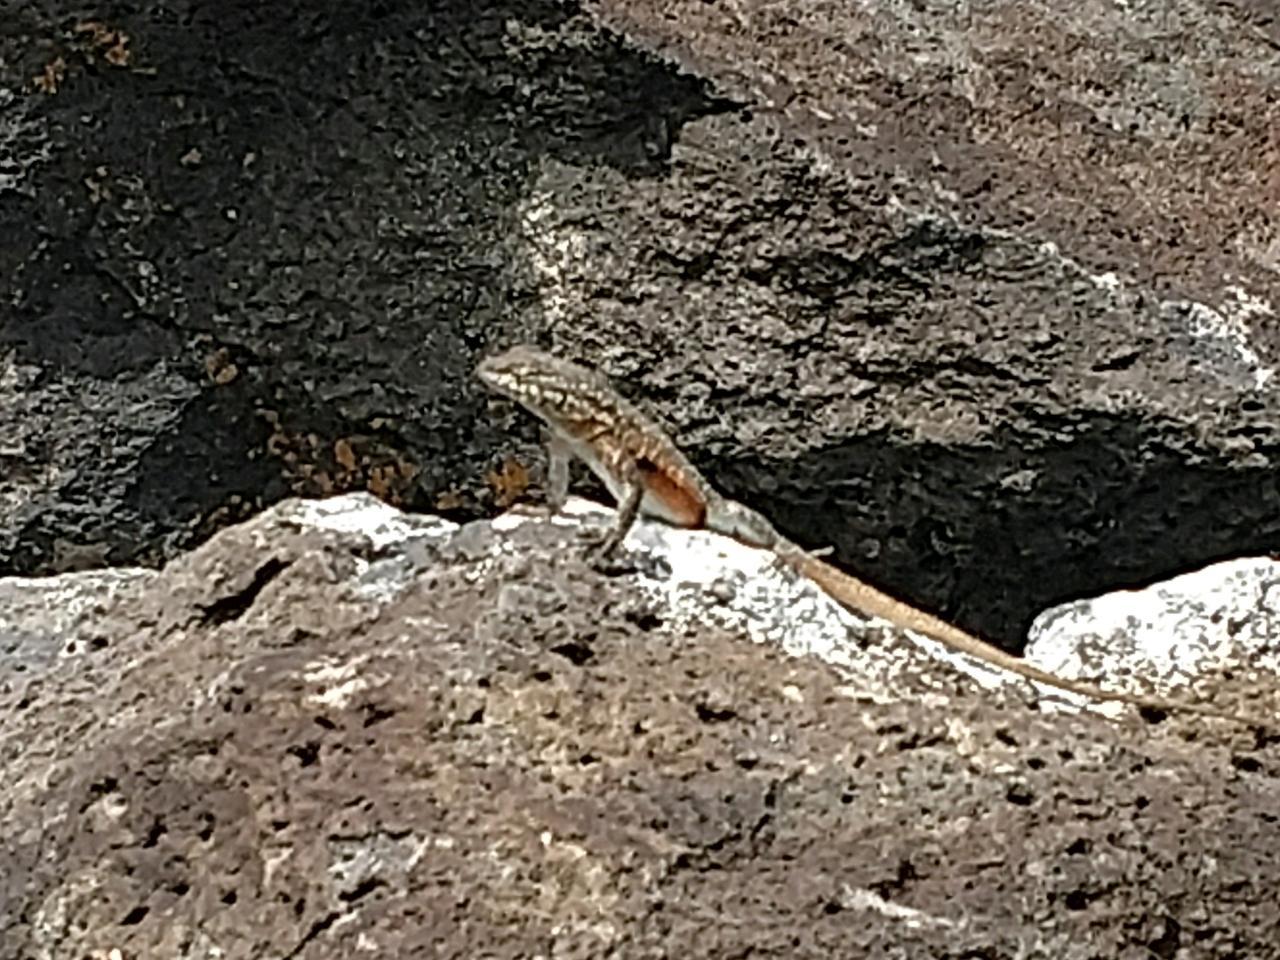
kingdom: Animalia
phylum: Chordata
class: Squamata
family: Phrynosomatidae
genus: Uta
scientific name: Uta stansburiana
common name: Side-blotched lizard
